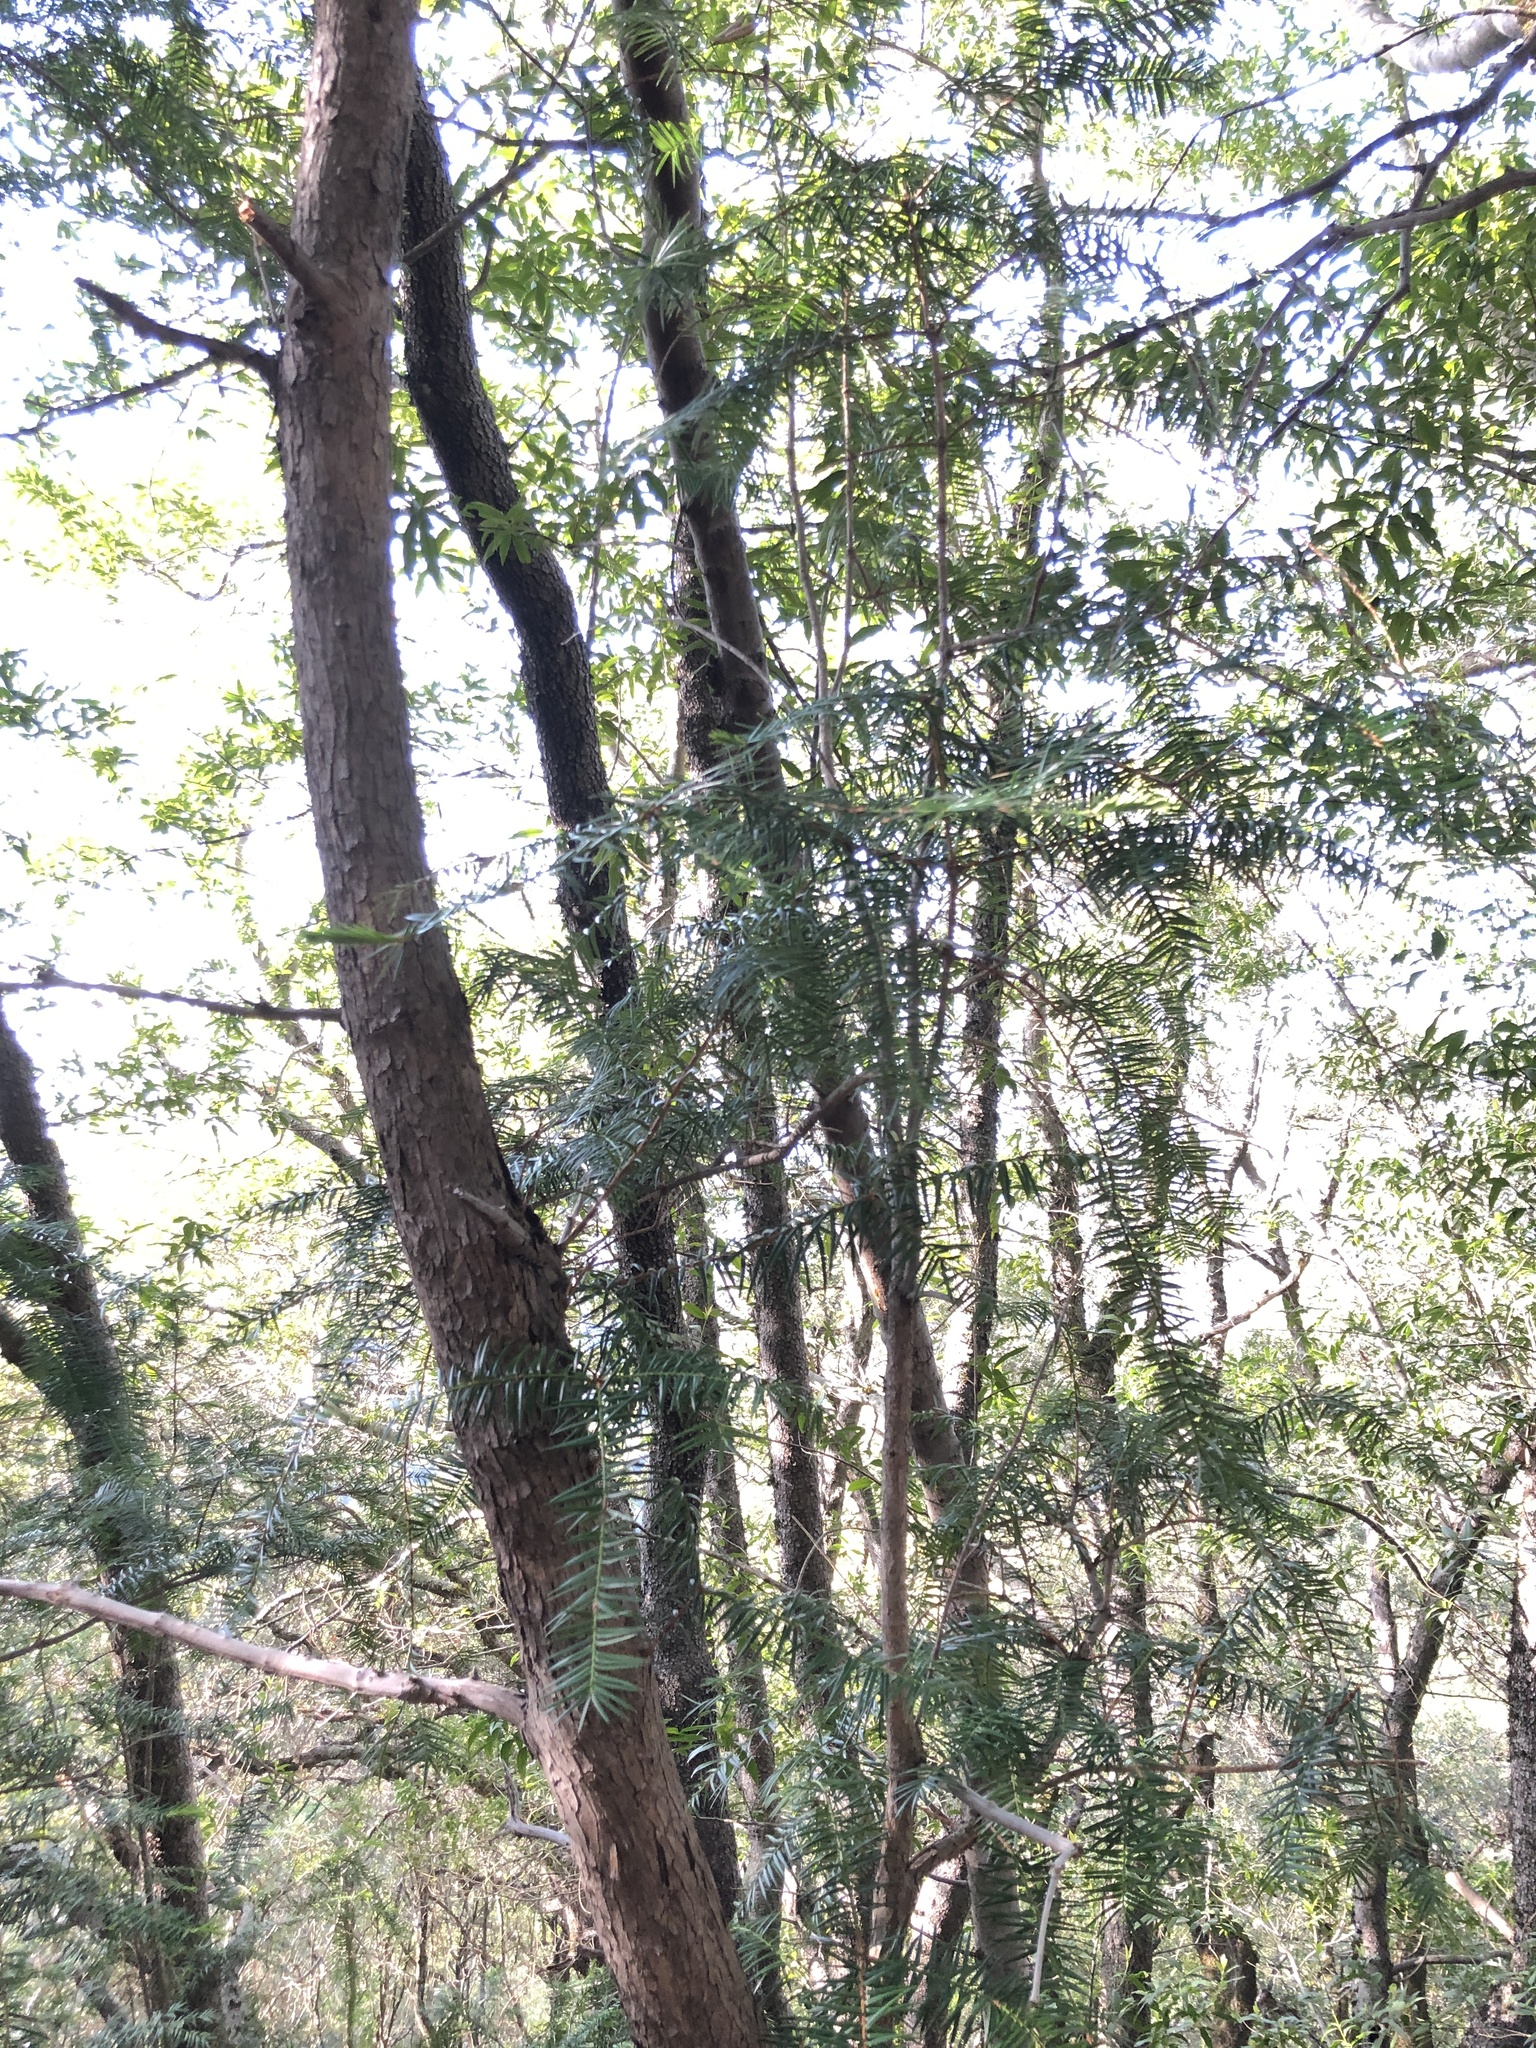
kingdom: Plantae
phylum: Tracheophyta
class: Pinopsida
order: Pinales
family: Taxaceae
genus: Torreya
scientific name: Torreya californica
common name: California torreya
